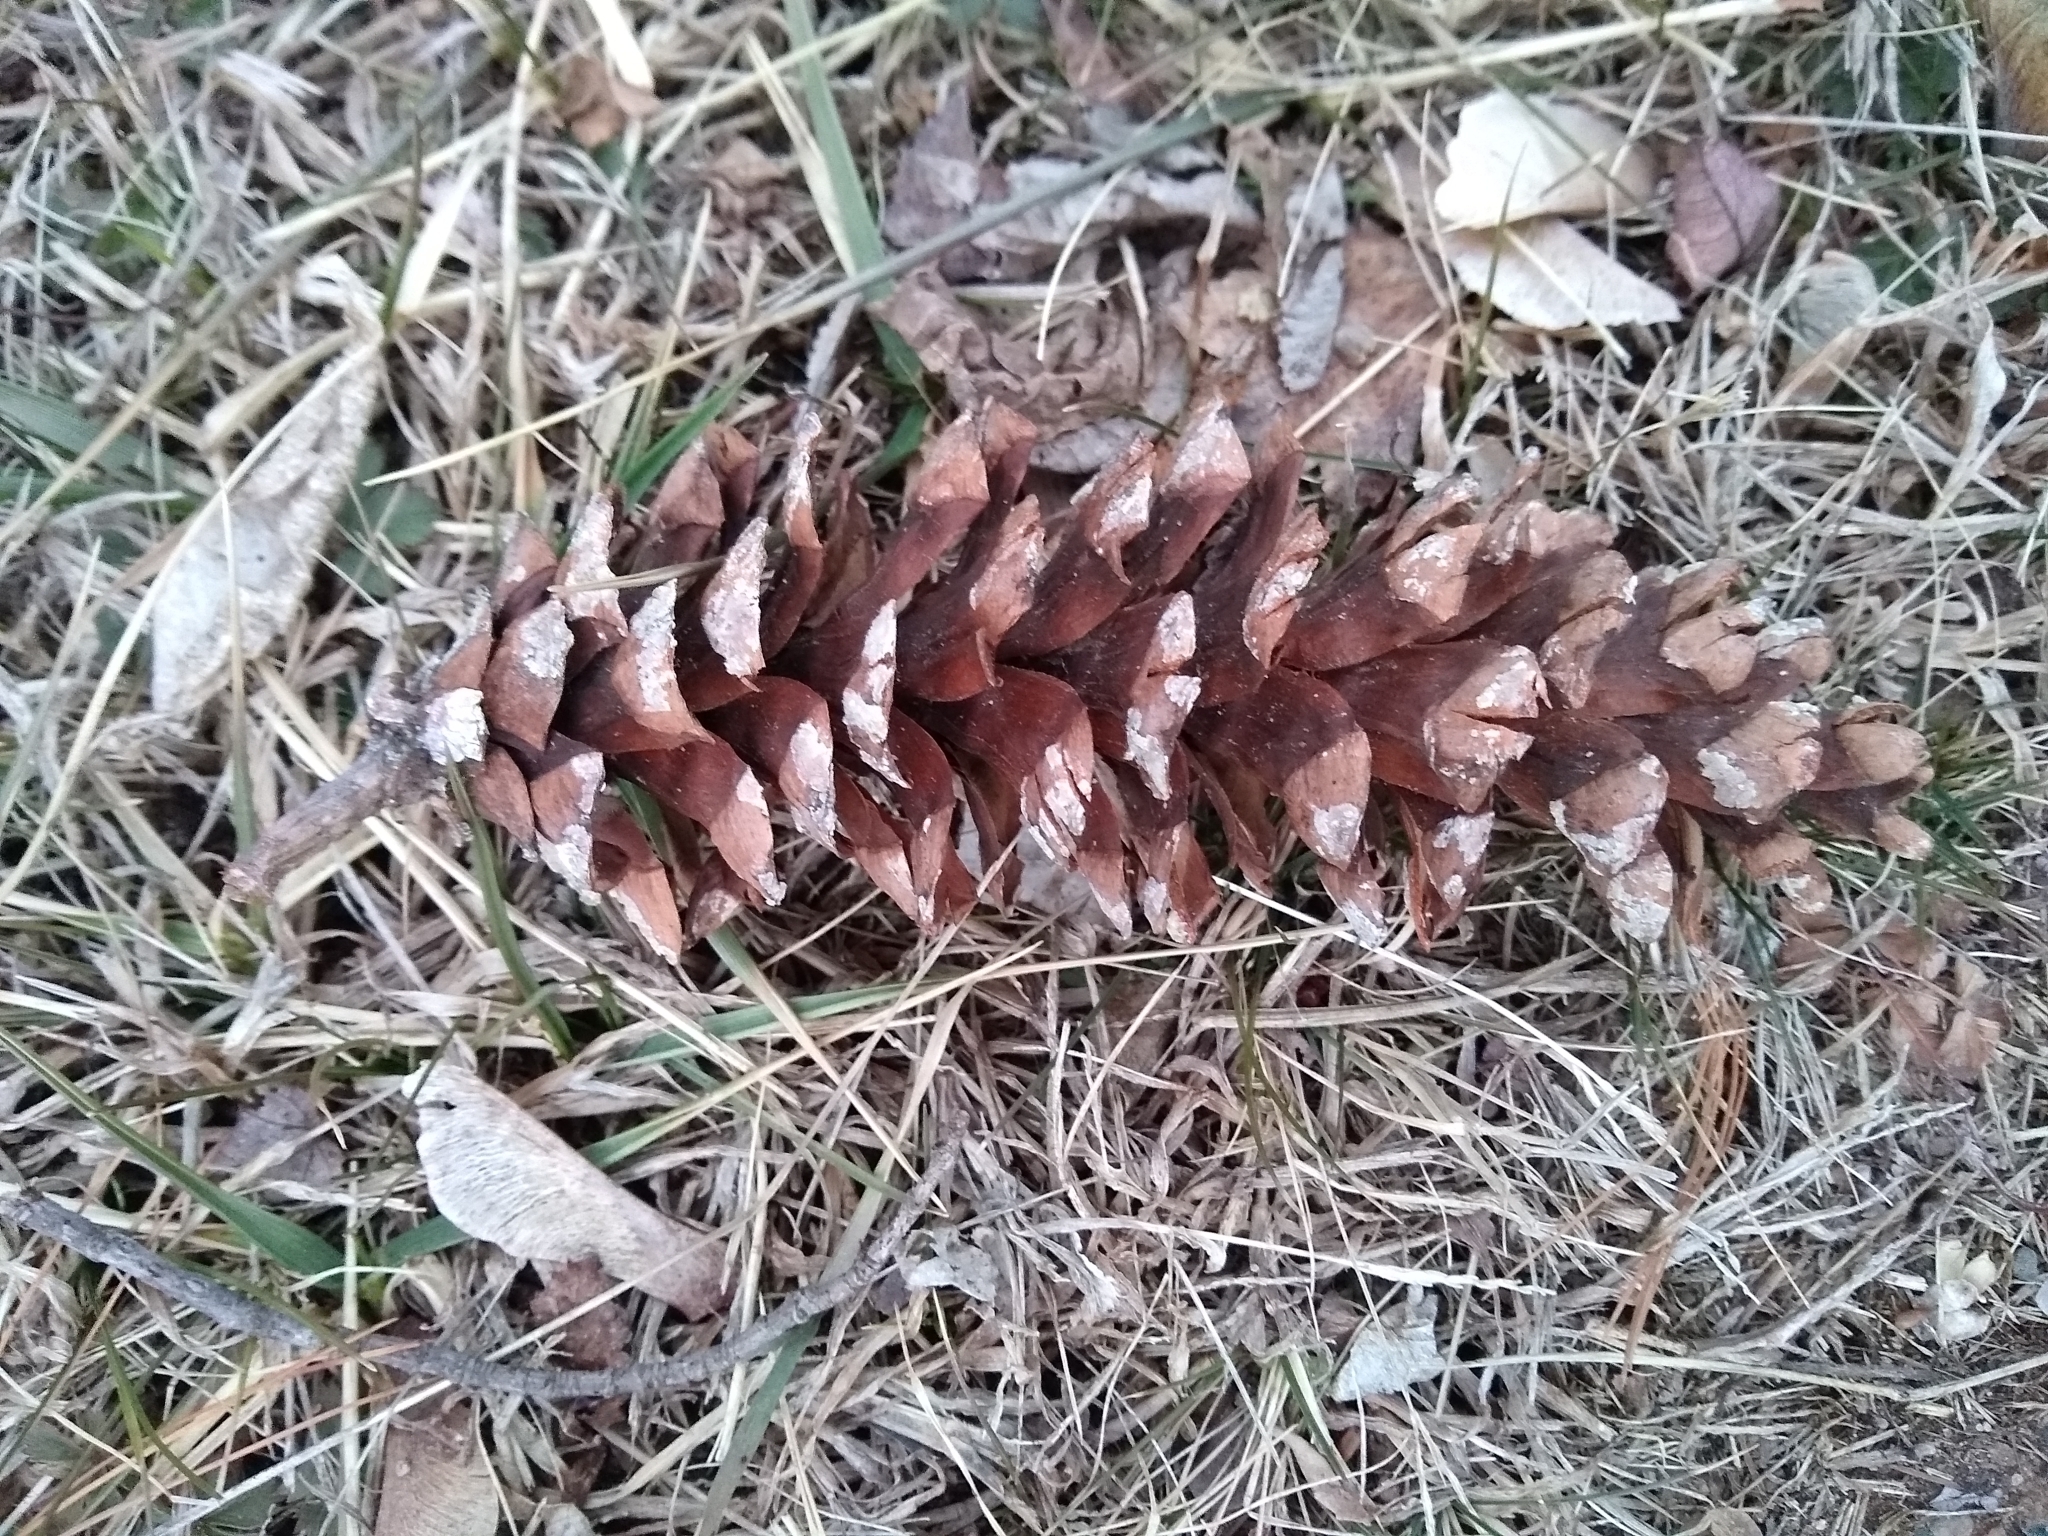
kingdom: Plantae
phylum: Tracheophyta
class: Pinopsida
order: Pinales
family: Pinaceae
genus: Pinus
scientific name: Pinus strobus
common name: Weymouth pine
